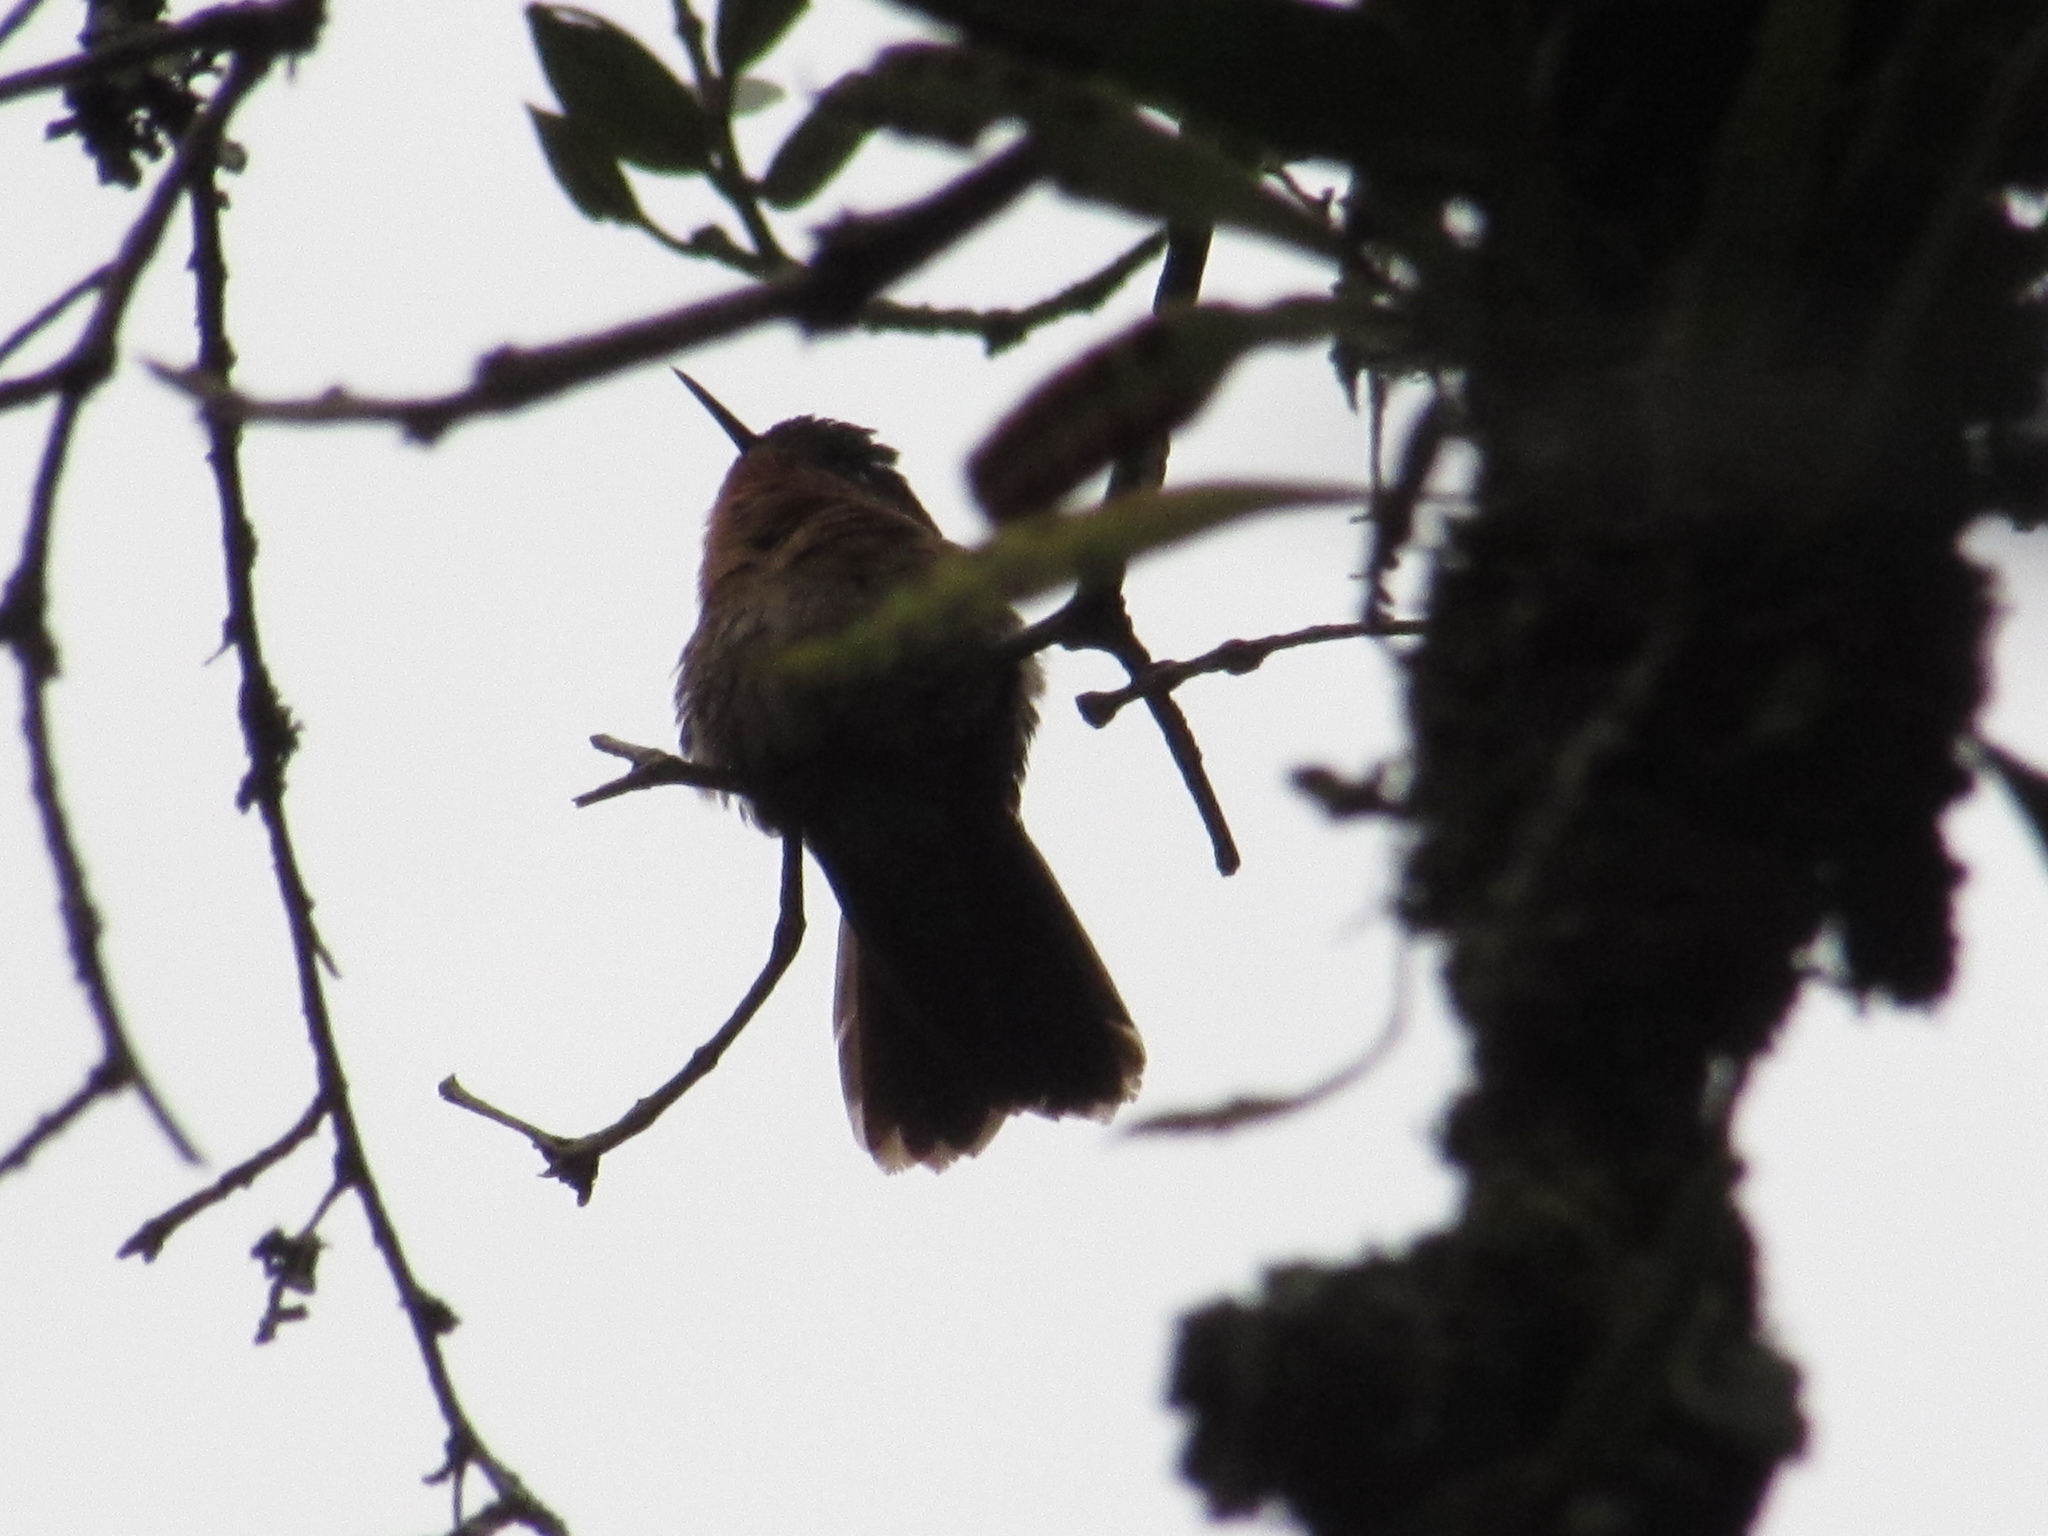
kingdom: Animalia
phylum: Chordata
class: Aves
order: Apodiformes
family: Trochilidae
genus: Metallura
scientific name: Metallura tyrianthina
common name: Tyrian metaltail
